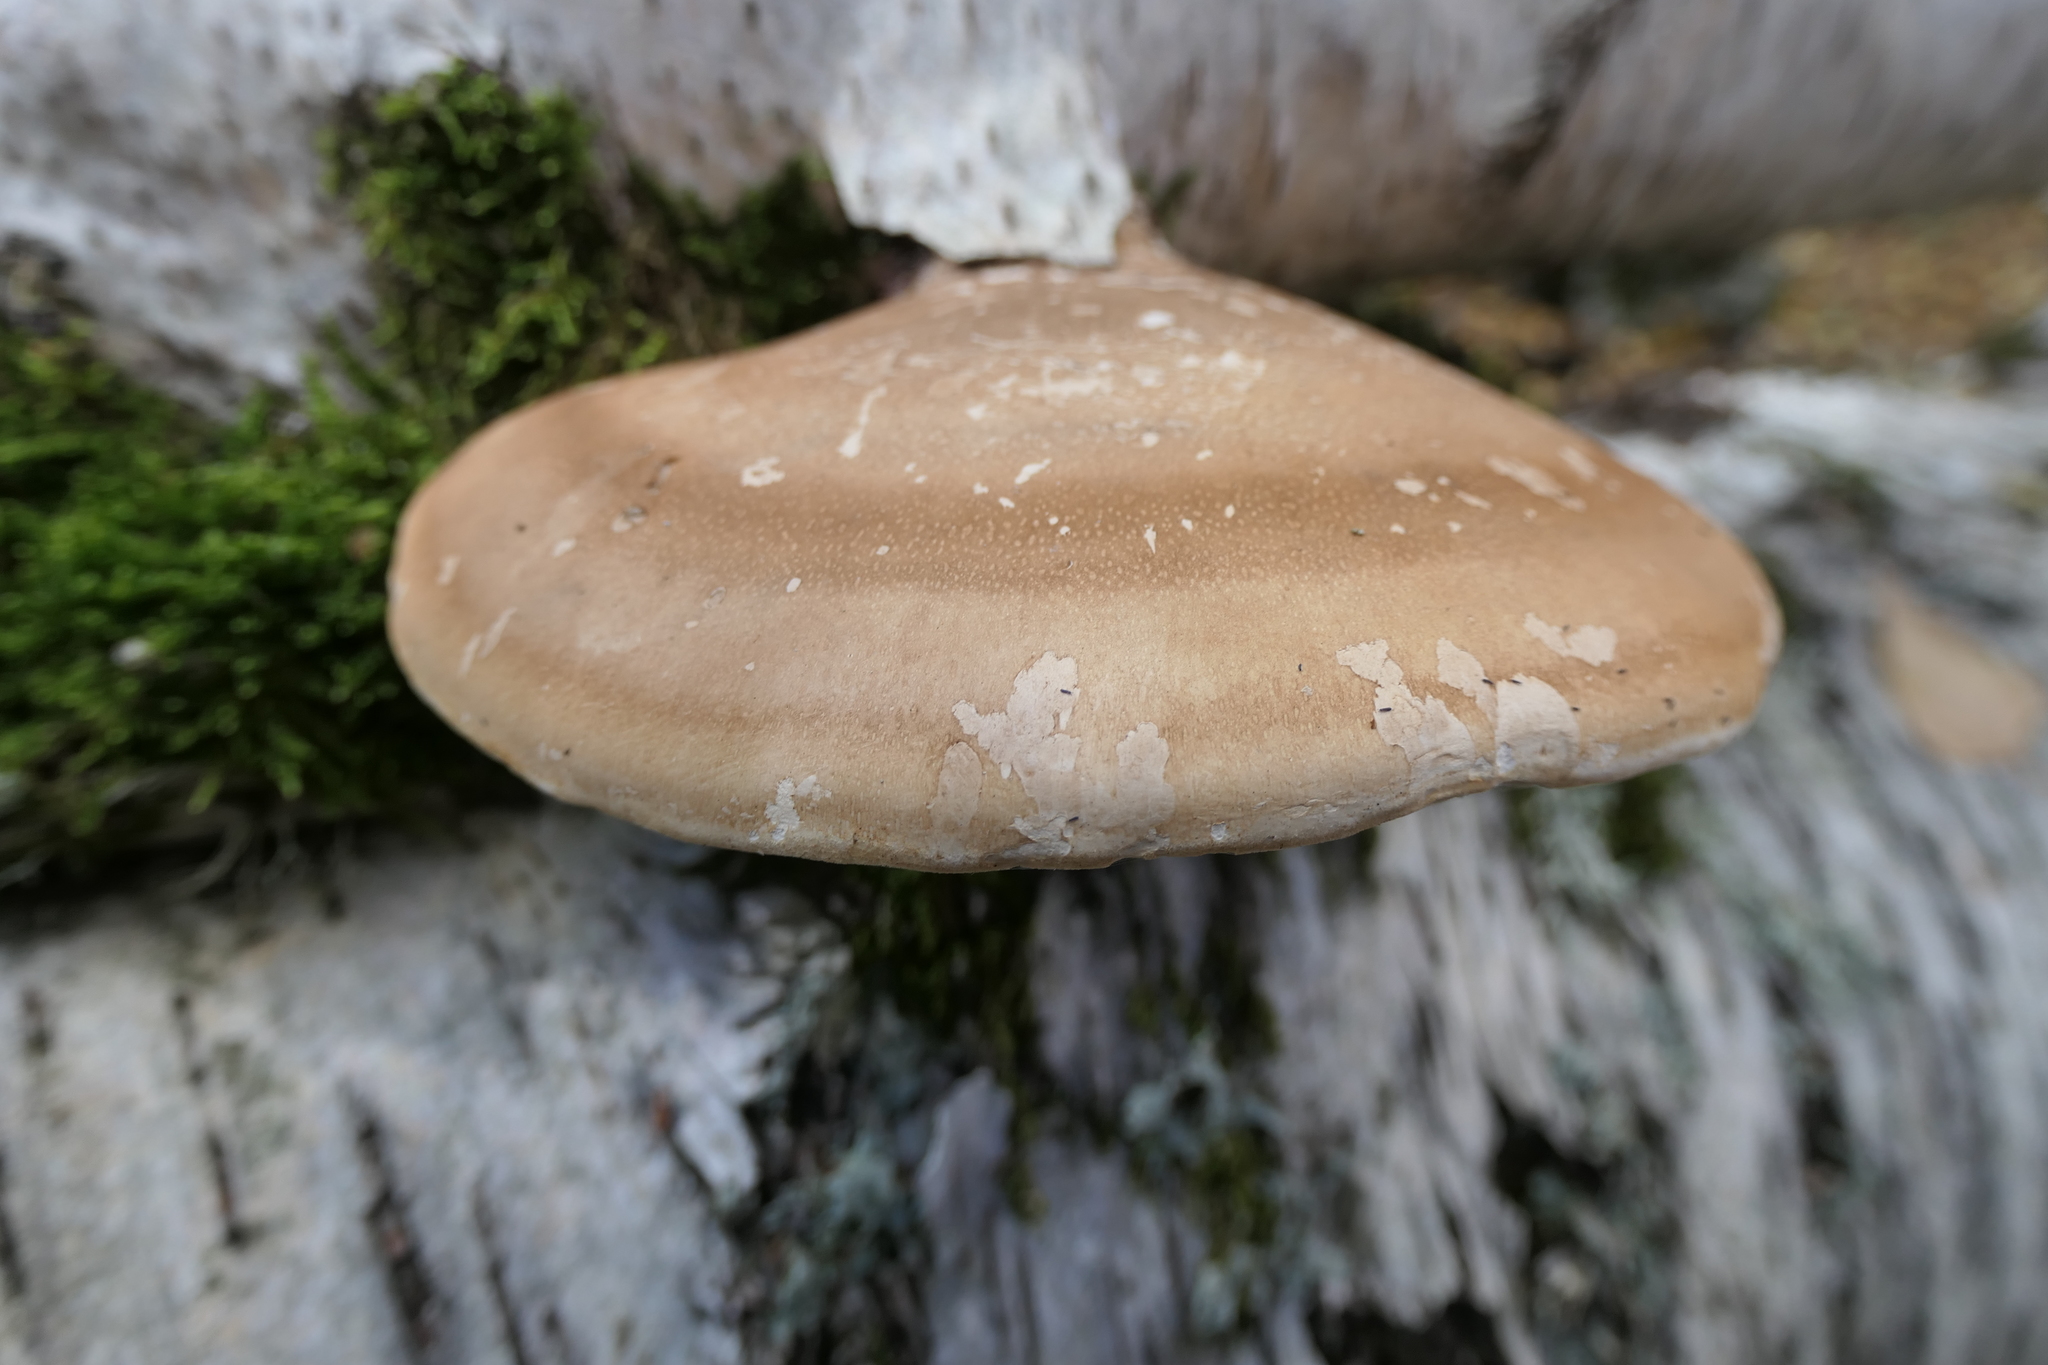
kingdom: Fungi
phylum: Basidiomycota
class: Agaricomycetes
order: Polyporales
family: Fomitopsidaceae
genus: Fomitopsis
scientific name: Fomitopsis betulina
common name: Birch polypore
